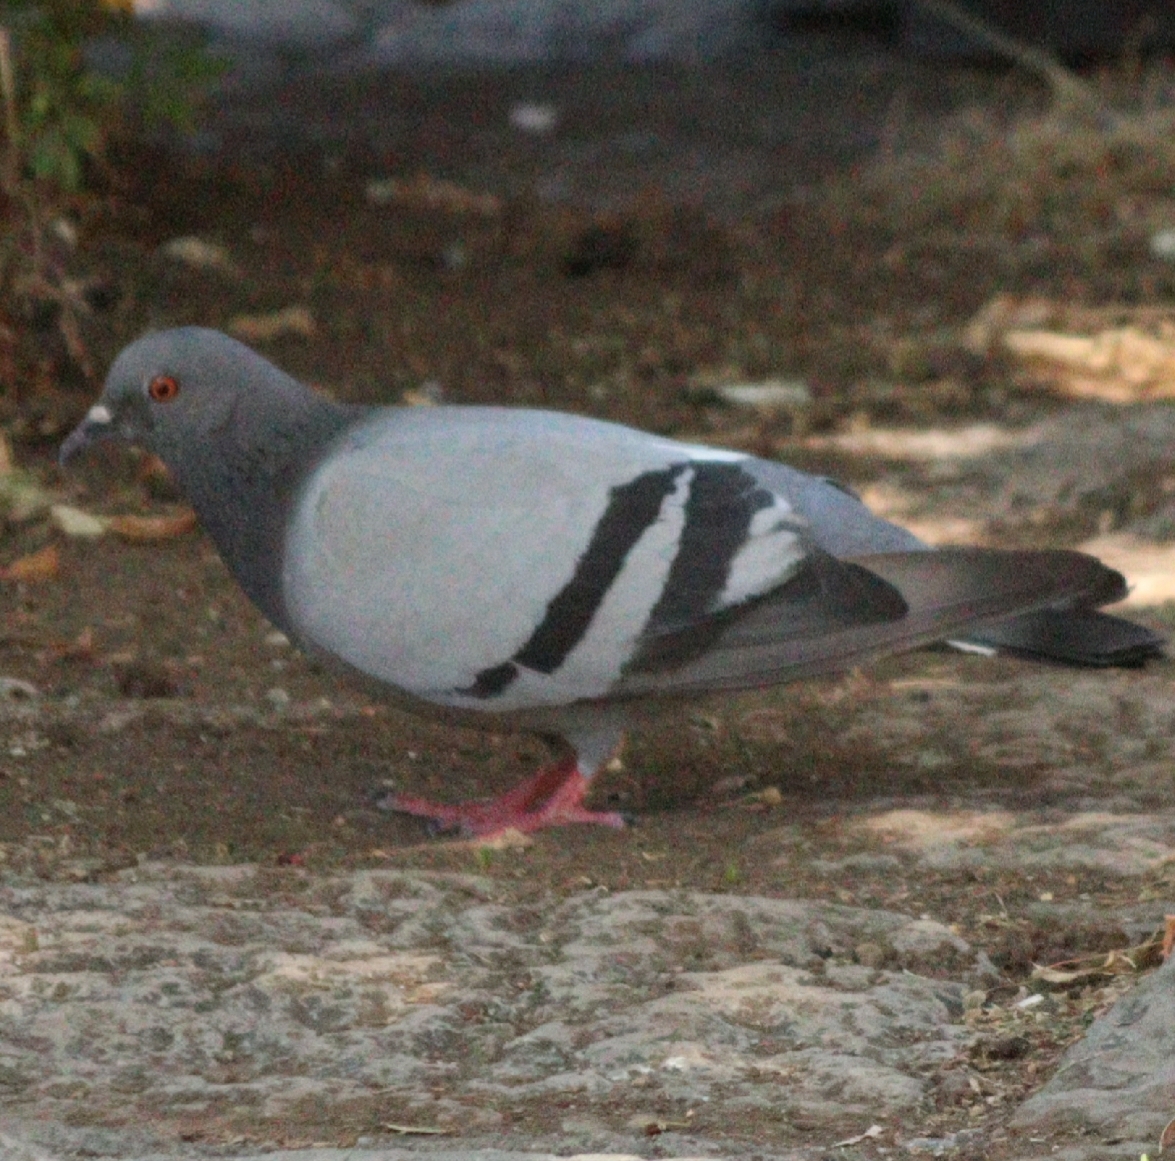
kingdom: Animalia
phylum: Chordata
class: Aves
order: Columbiformes
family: Columbidae
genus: Columba
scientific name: Columba livia
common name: Rock pigeon
